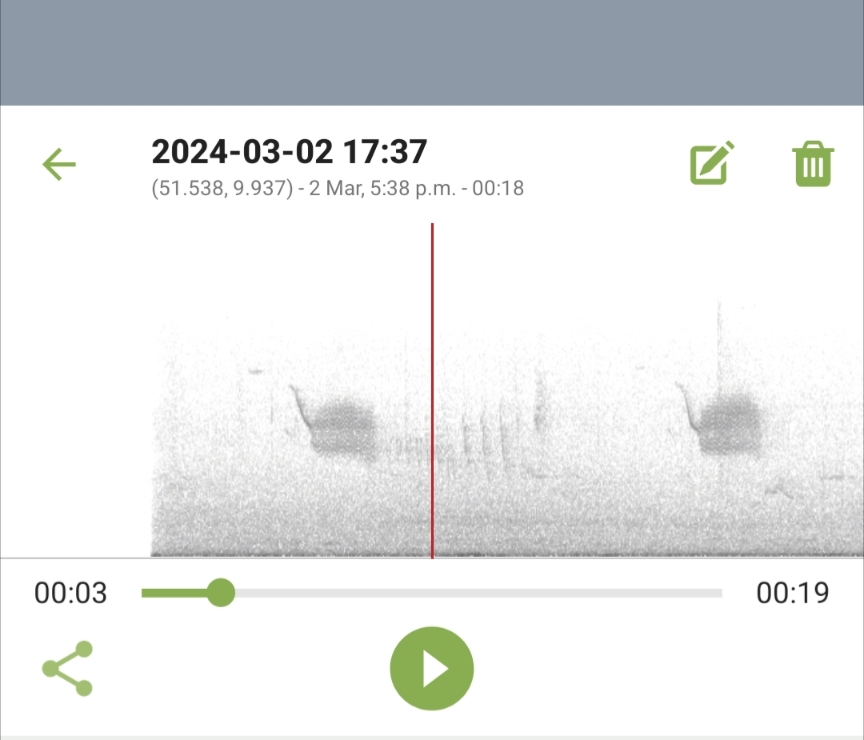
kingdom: Plantae
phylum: Tracheophyta
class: Liliopsida
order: Poales
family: Poaceae
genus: Chloris
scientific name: Chloris chloris
